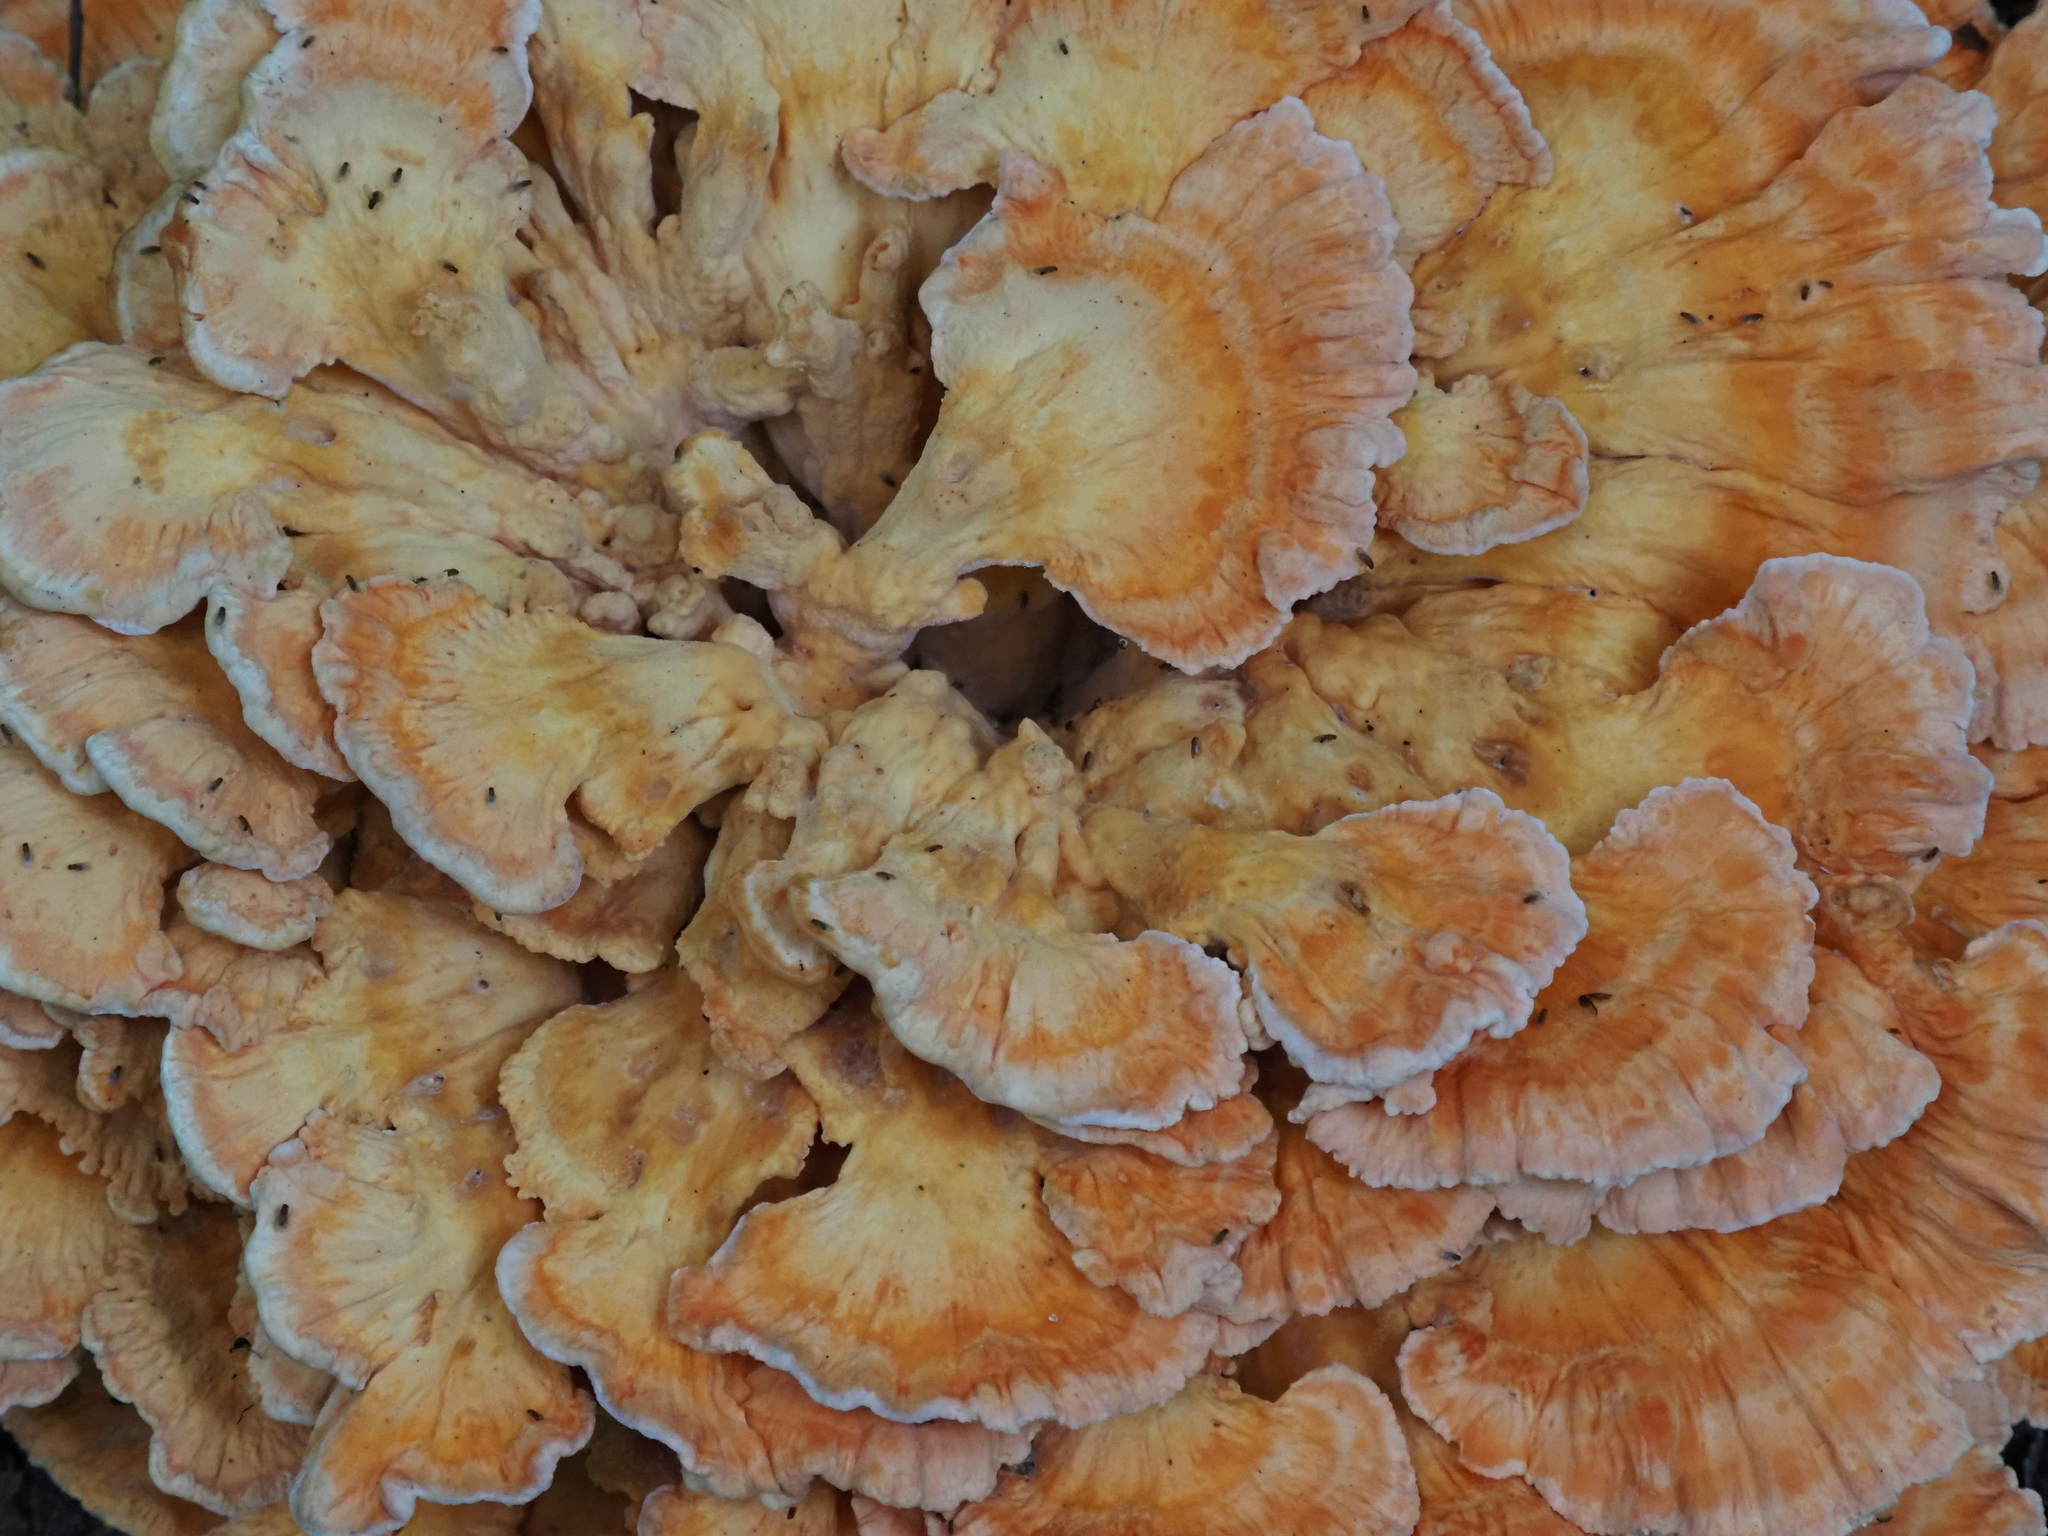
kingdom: Fungi
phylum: Basidiomycota
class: Agaricomycetes
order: Polyporales
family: Laetiporaceae
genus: Laetiporus
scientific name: Laetiporus sulphureus
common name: Chicken of the woods
